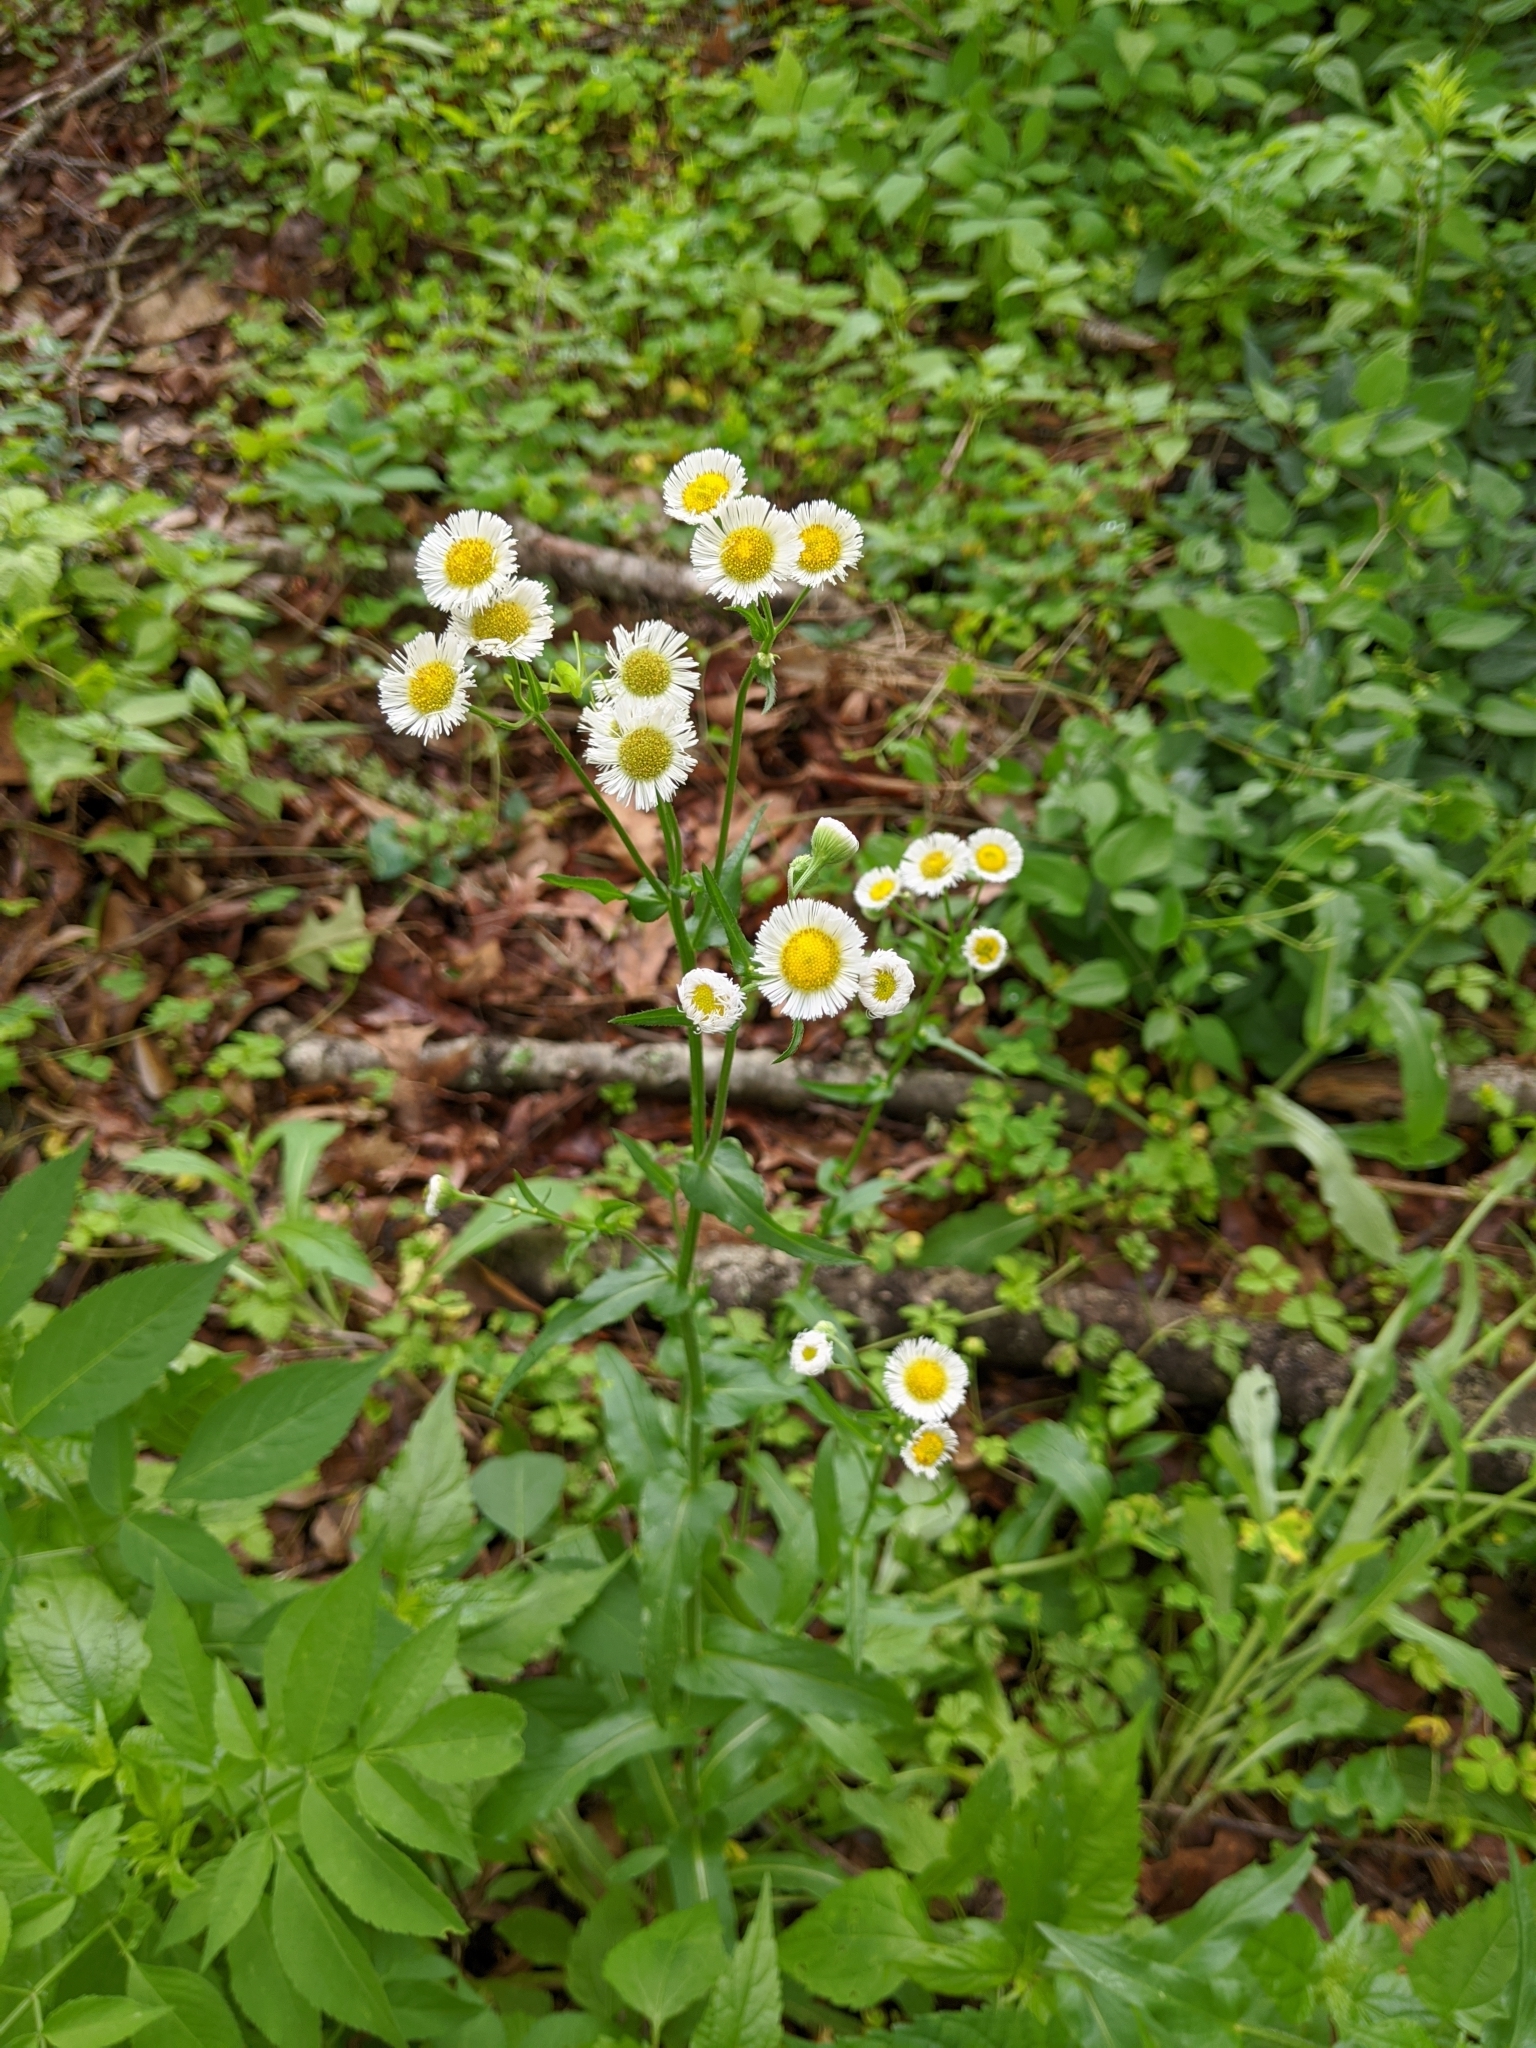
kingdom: Plantae
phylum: Tracheophyta
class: Magnoliopsida
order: Asterales
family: Asteraceae
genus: Erigeron
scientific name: Erigeron philadelphicus
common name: Robin's-plantain
